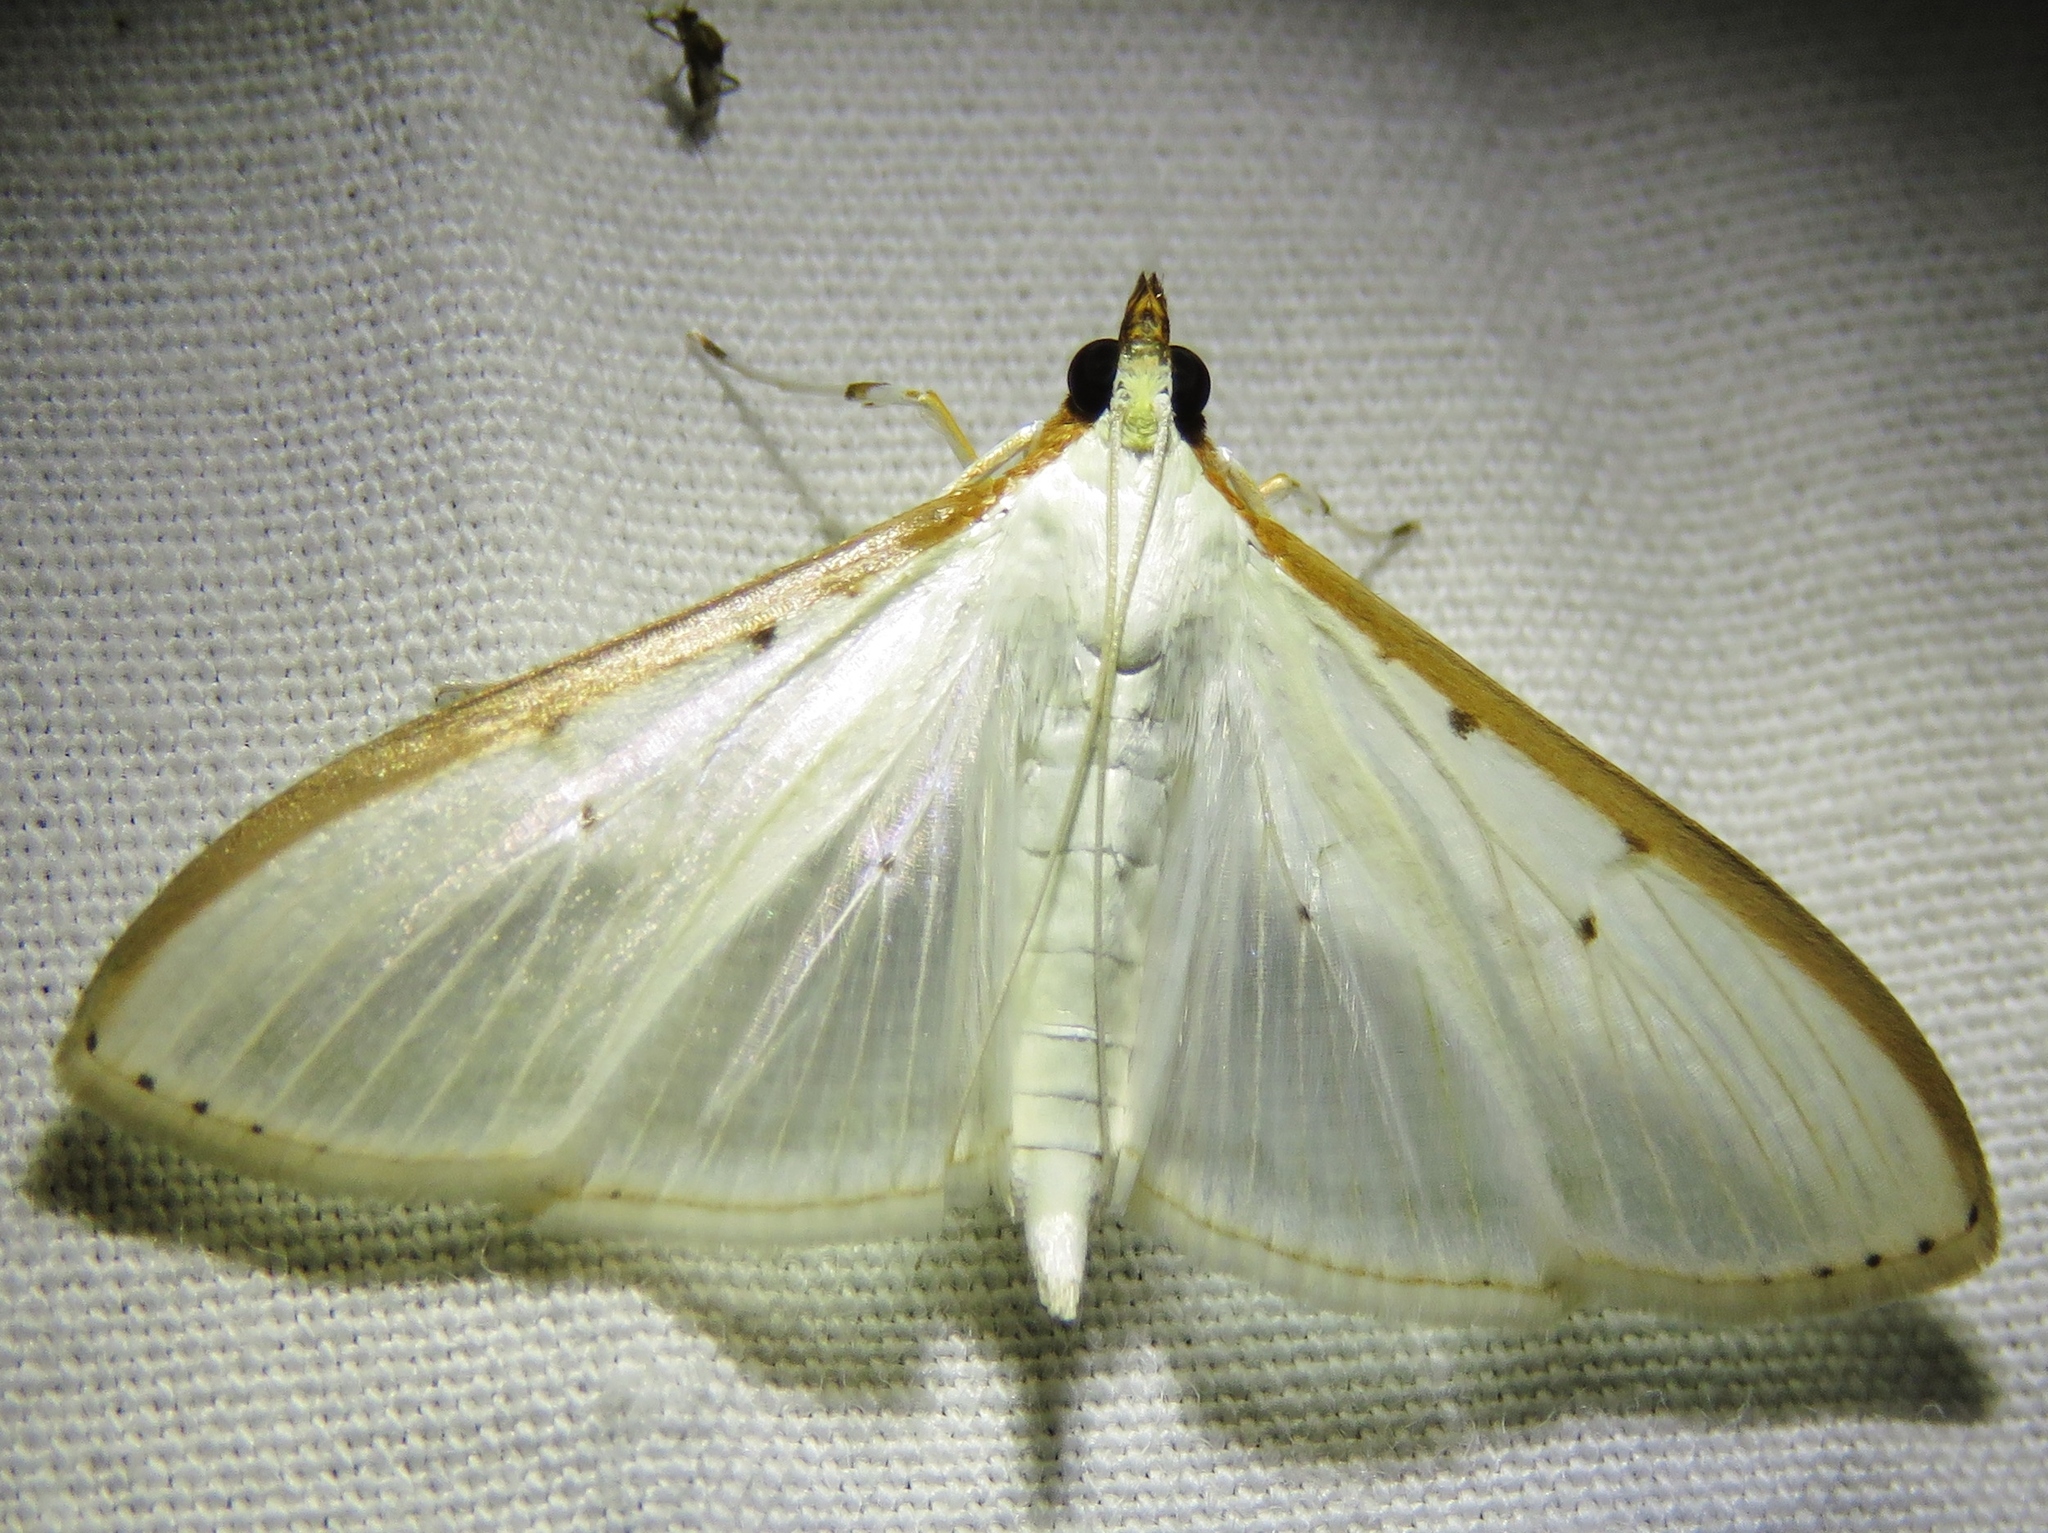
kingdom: Animalia
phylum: Arthropoda
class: Insecta
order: Lepidoptera
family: Crambidae
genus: Palpita
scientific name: Palpita quadristigmalis
